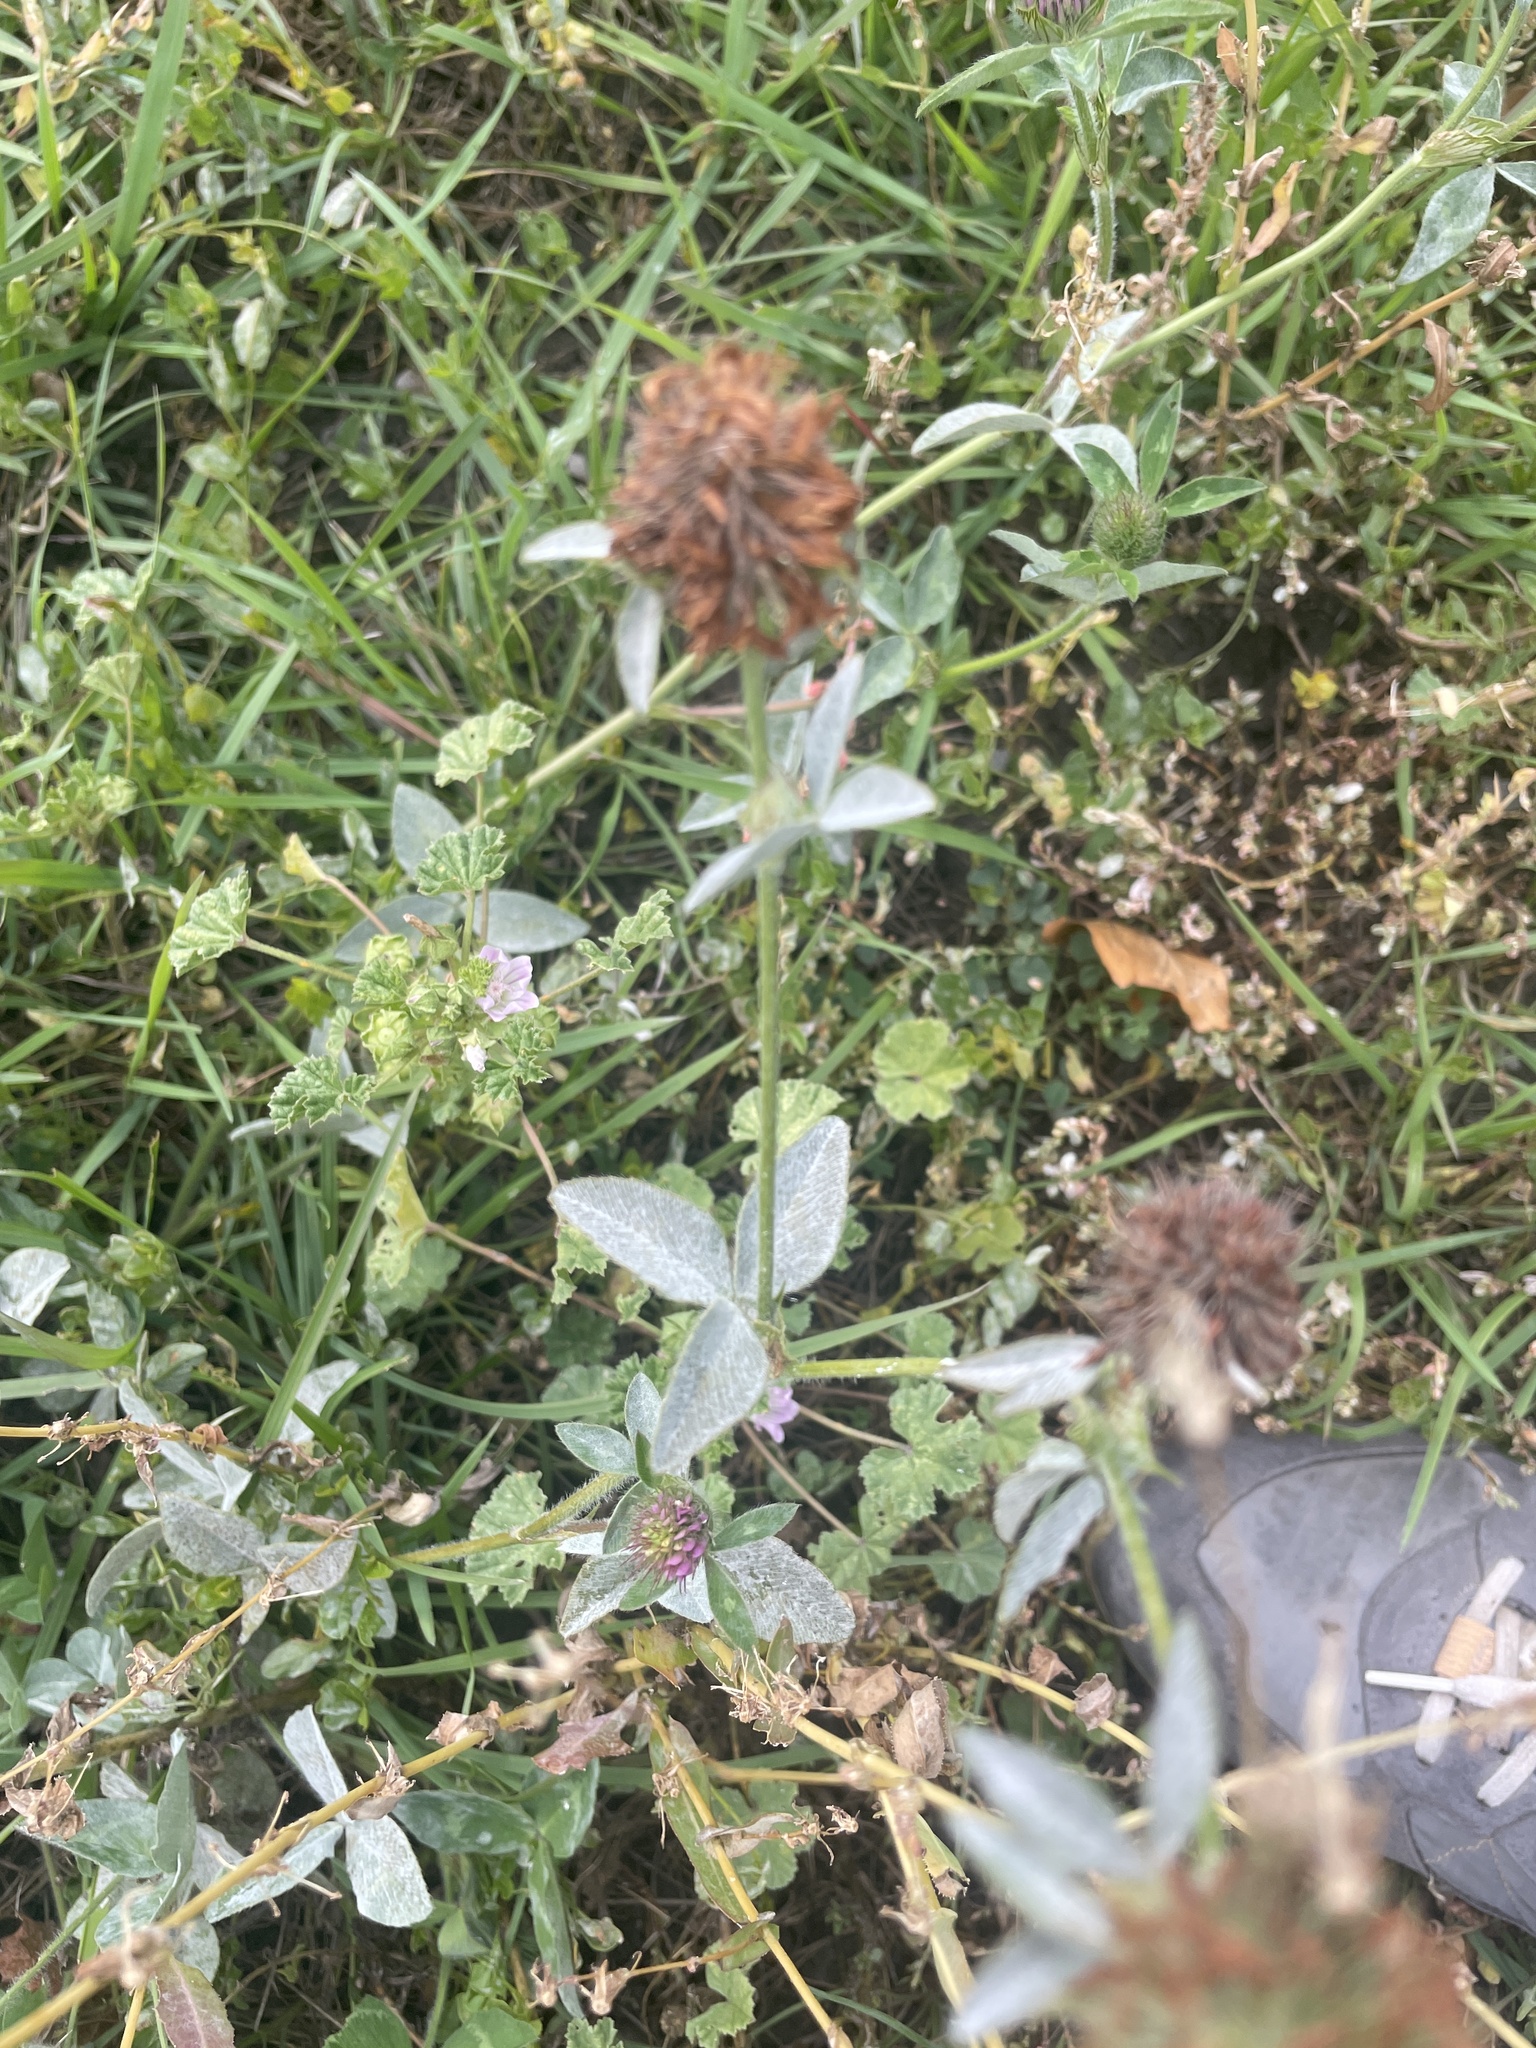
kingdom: Fungi
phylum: Ascomycota
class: Leotiomycetes
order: Helotiales
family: Erysiphaceae
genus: Erysiphe
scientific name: Erysiphe trifoliorum
